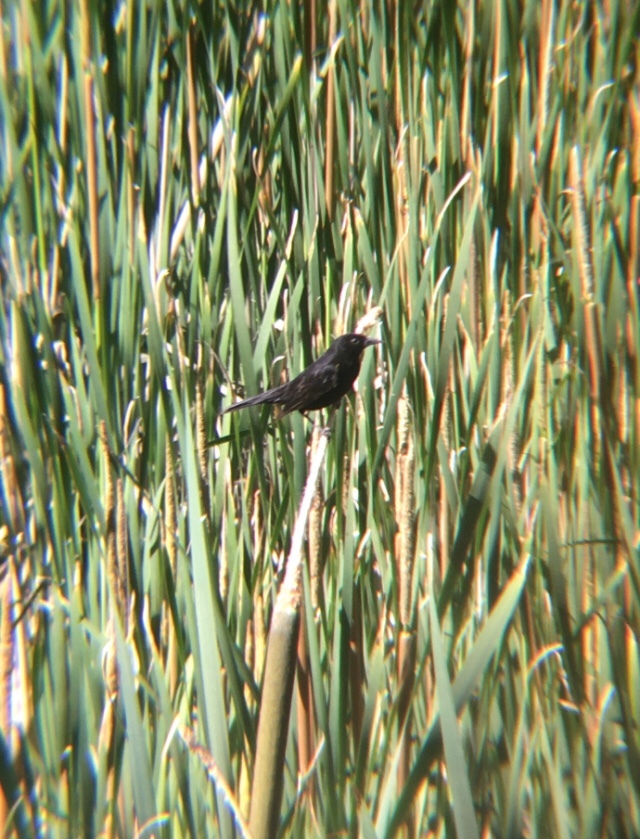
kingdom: Animalia
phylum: Chordata
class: Aves
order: Passeriformes
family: Icteridae
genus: Agelasticus
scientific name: Agelasticus thilius
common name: Yellow-winged blackbird
